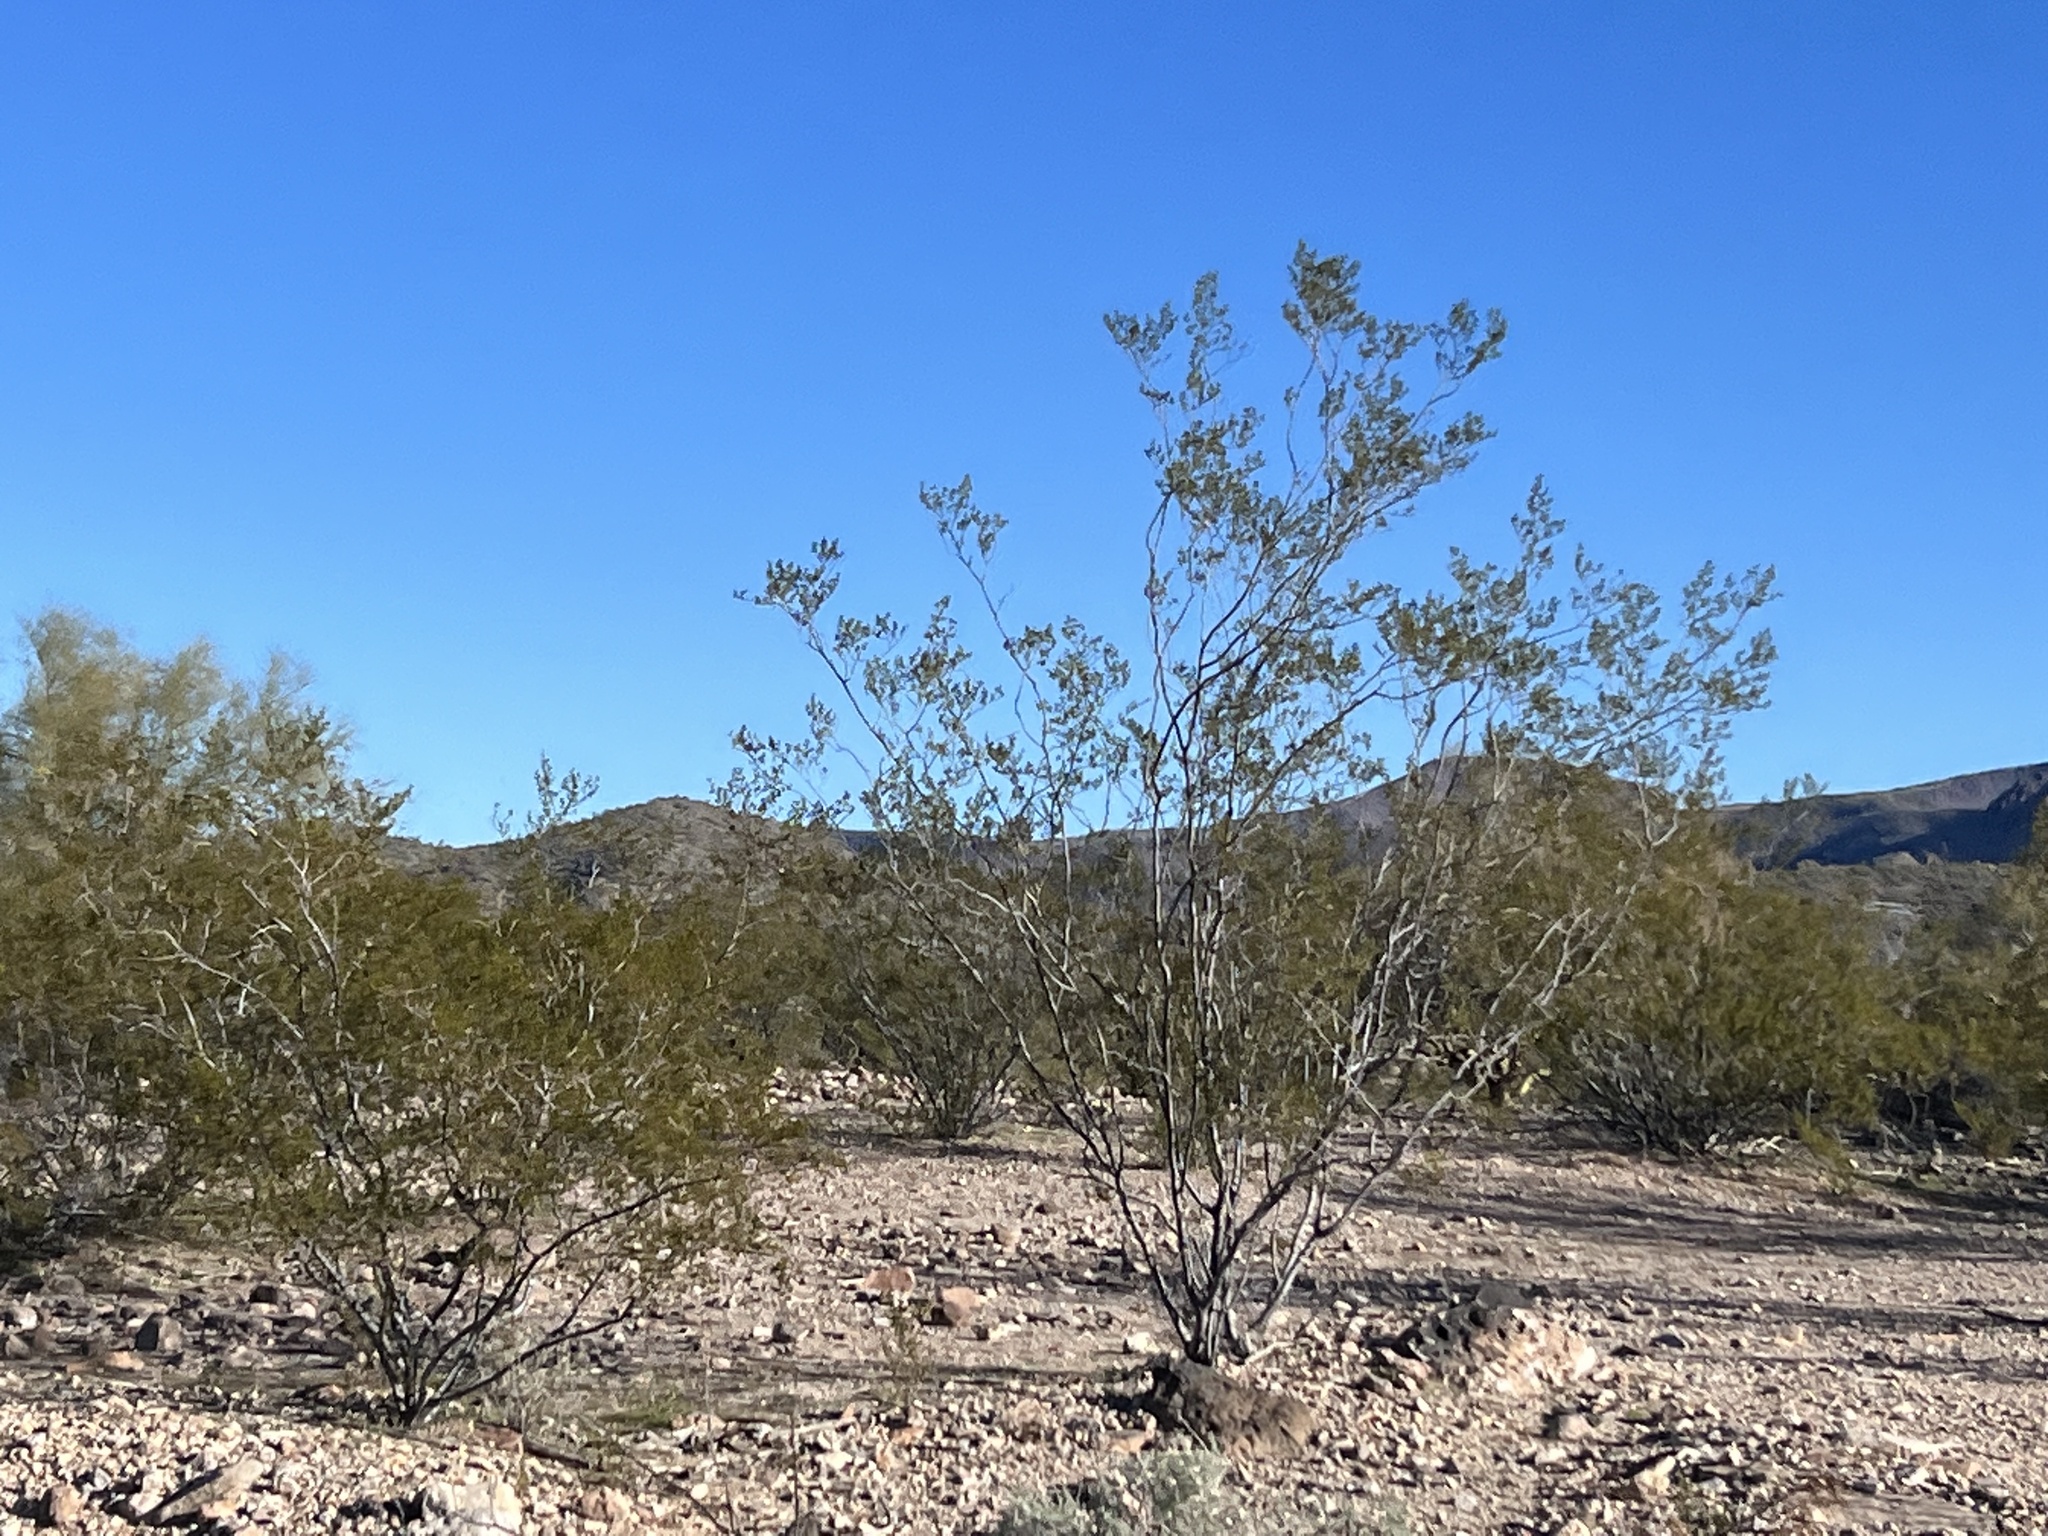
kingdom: Plantae
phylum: Tracheophyta
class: Magnoliopsida
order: Zygophyllales
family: Zygophyllaceae
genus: Larrea
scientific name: Larrea tridentata
